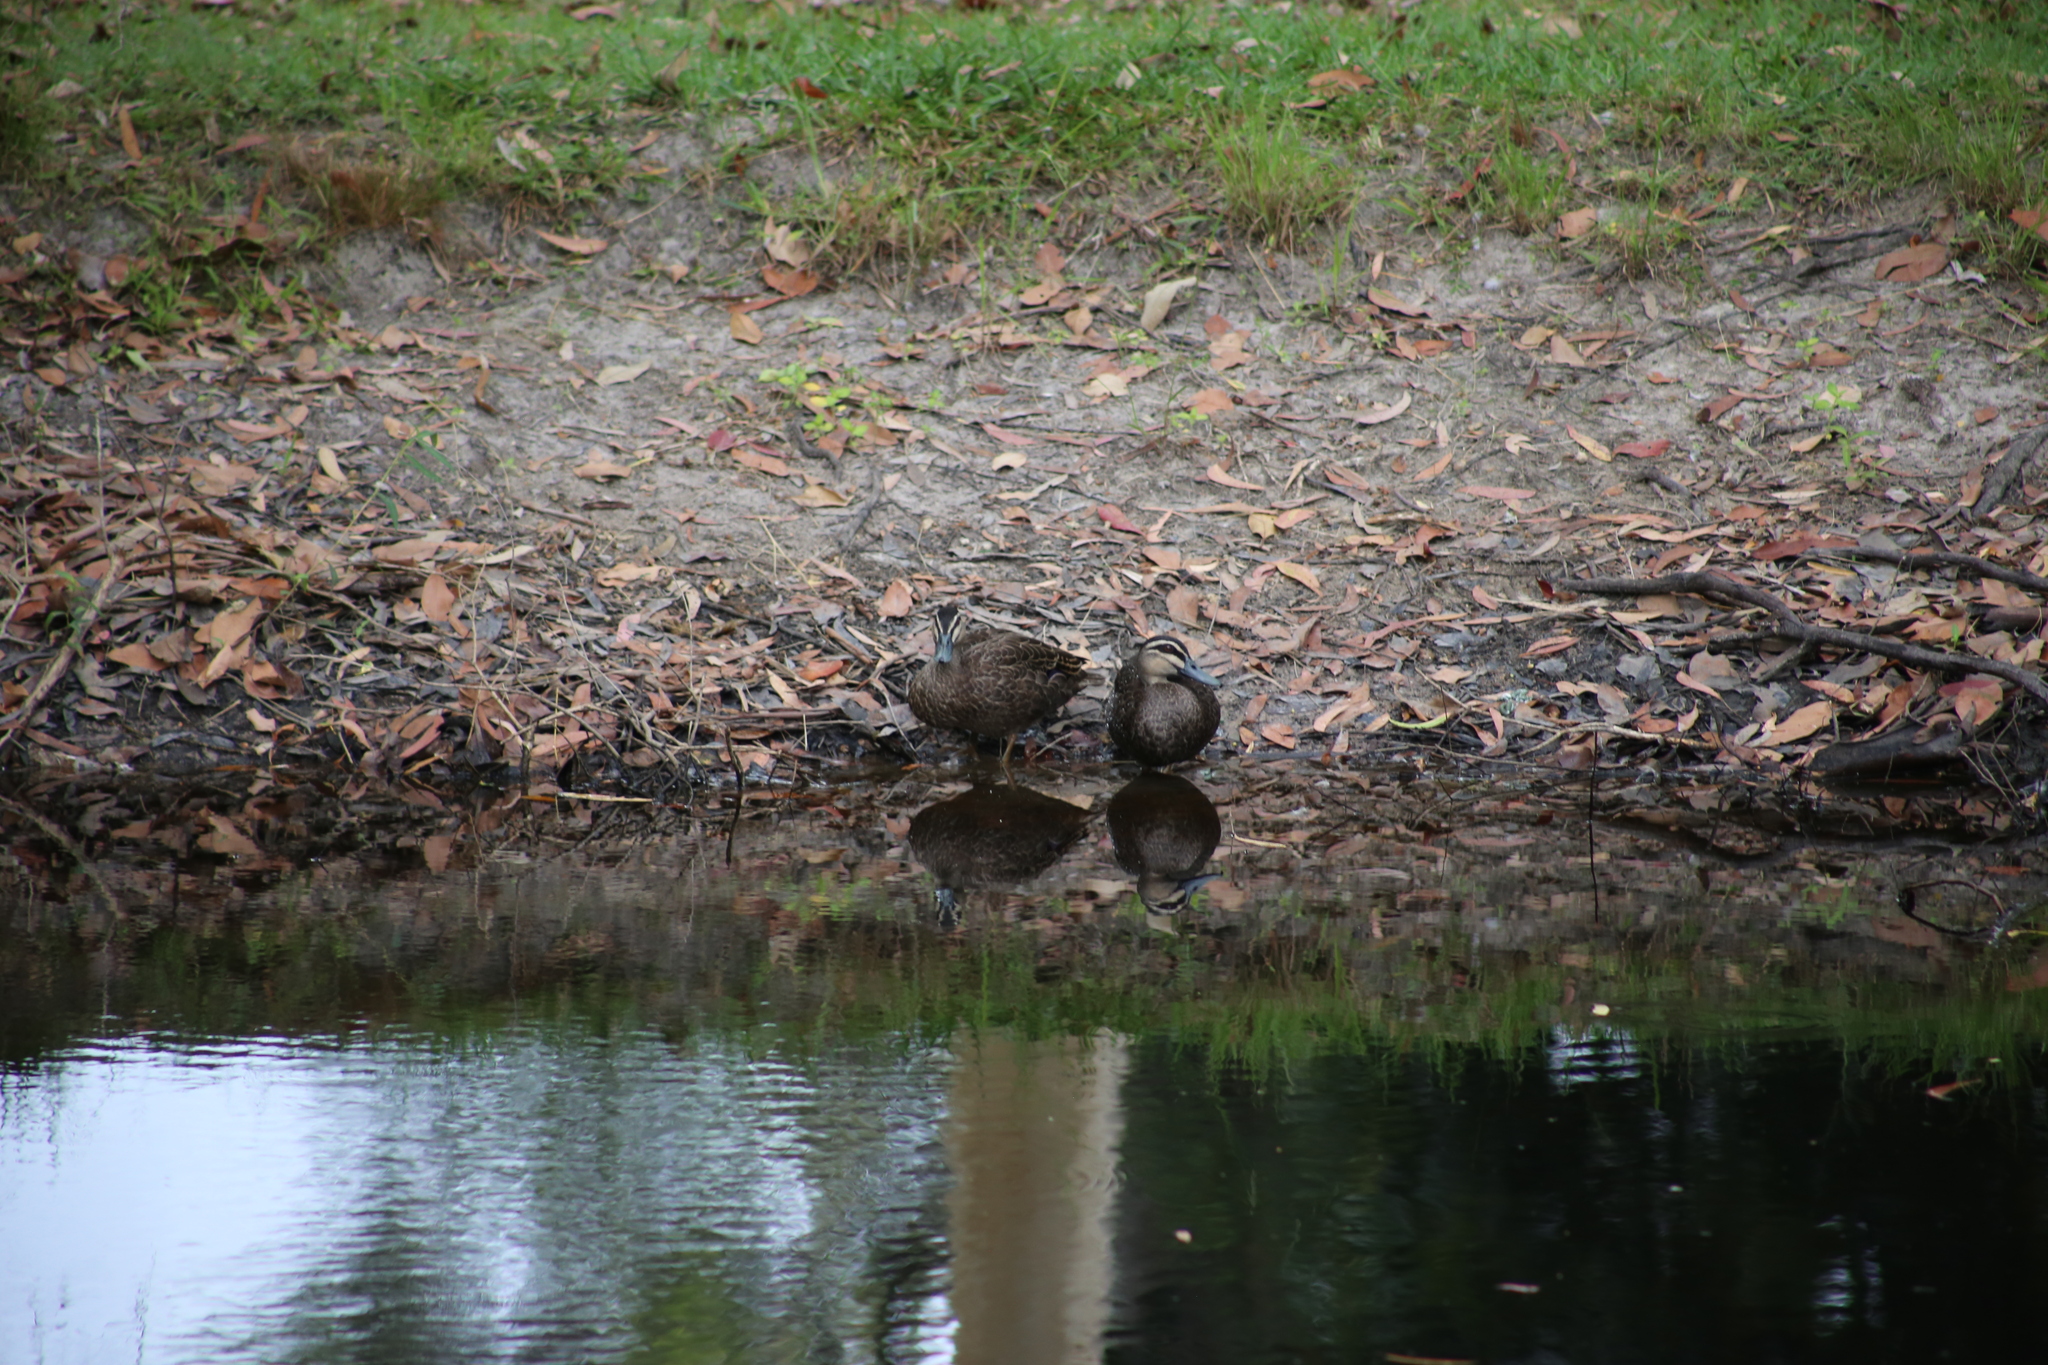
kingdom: Animalia
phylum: Chordata
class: Aves
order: Anseriformes
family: Anatidae
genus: Anas
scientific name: Anas superciliosa
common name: Pacific black duck
